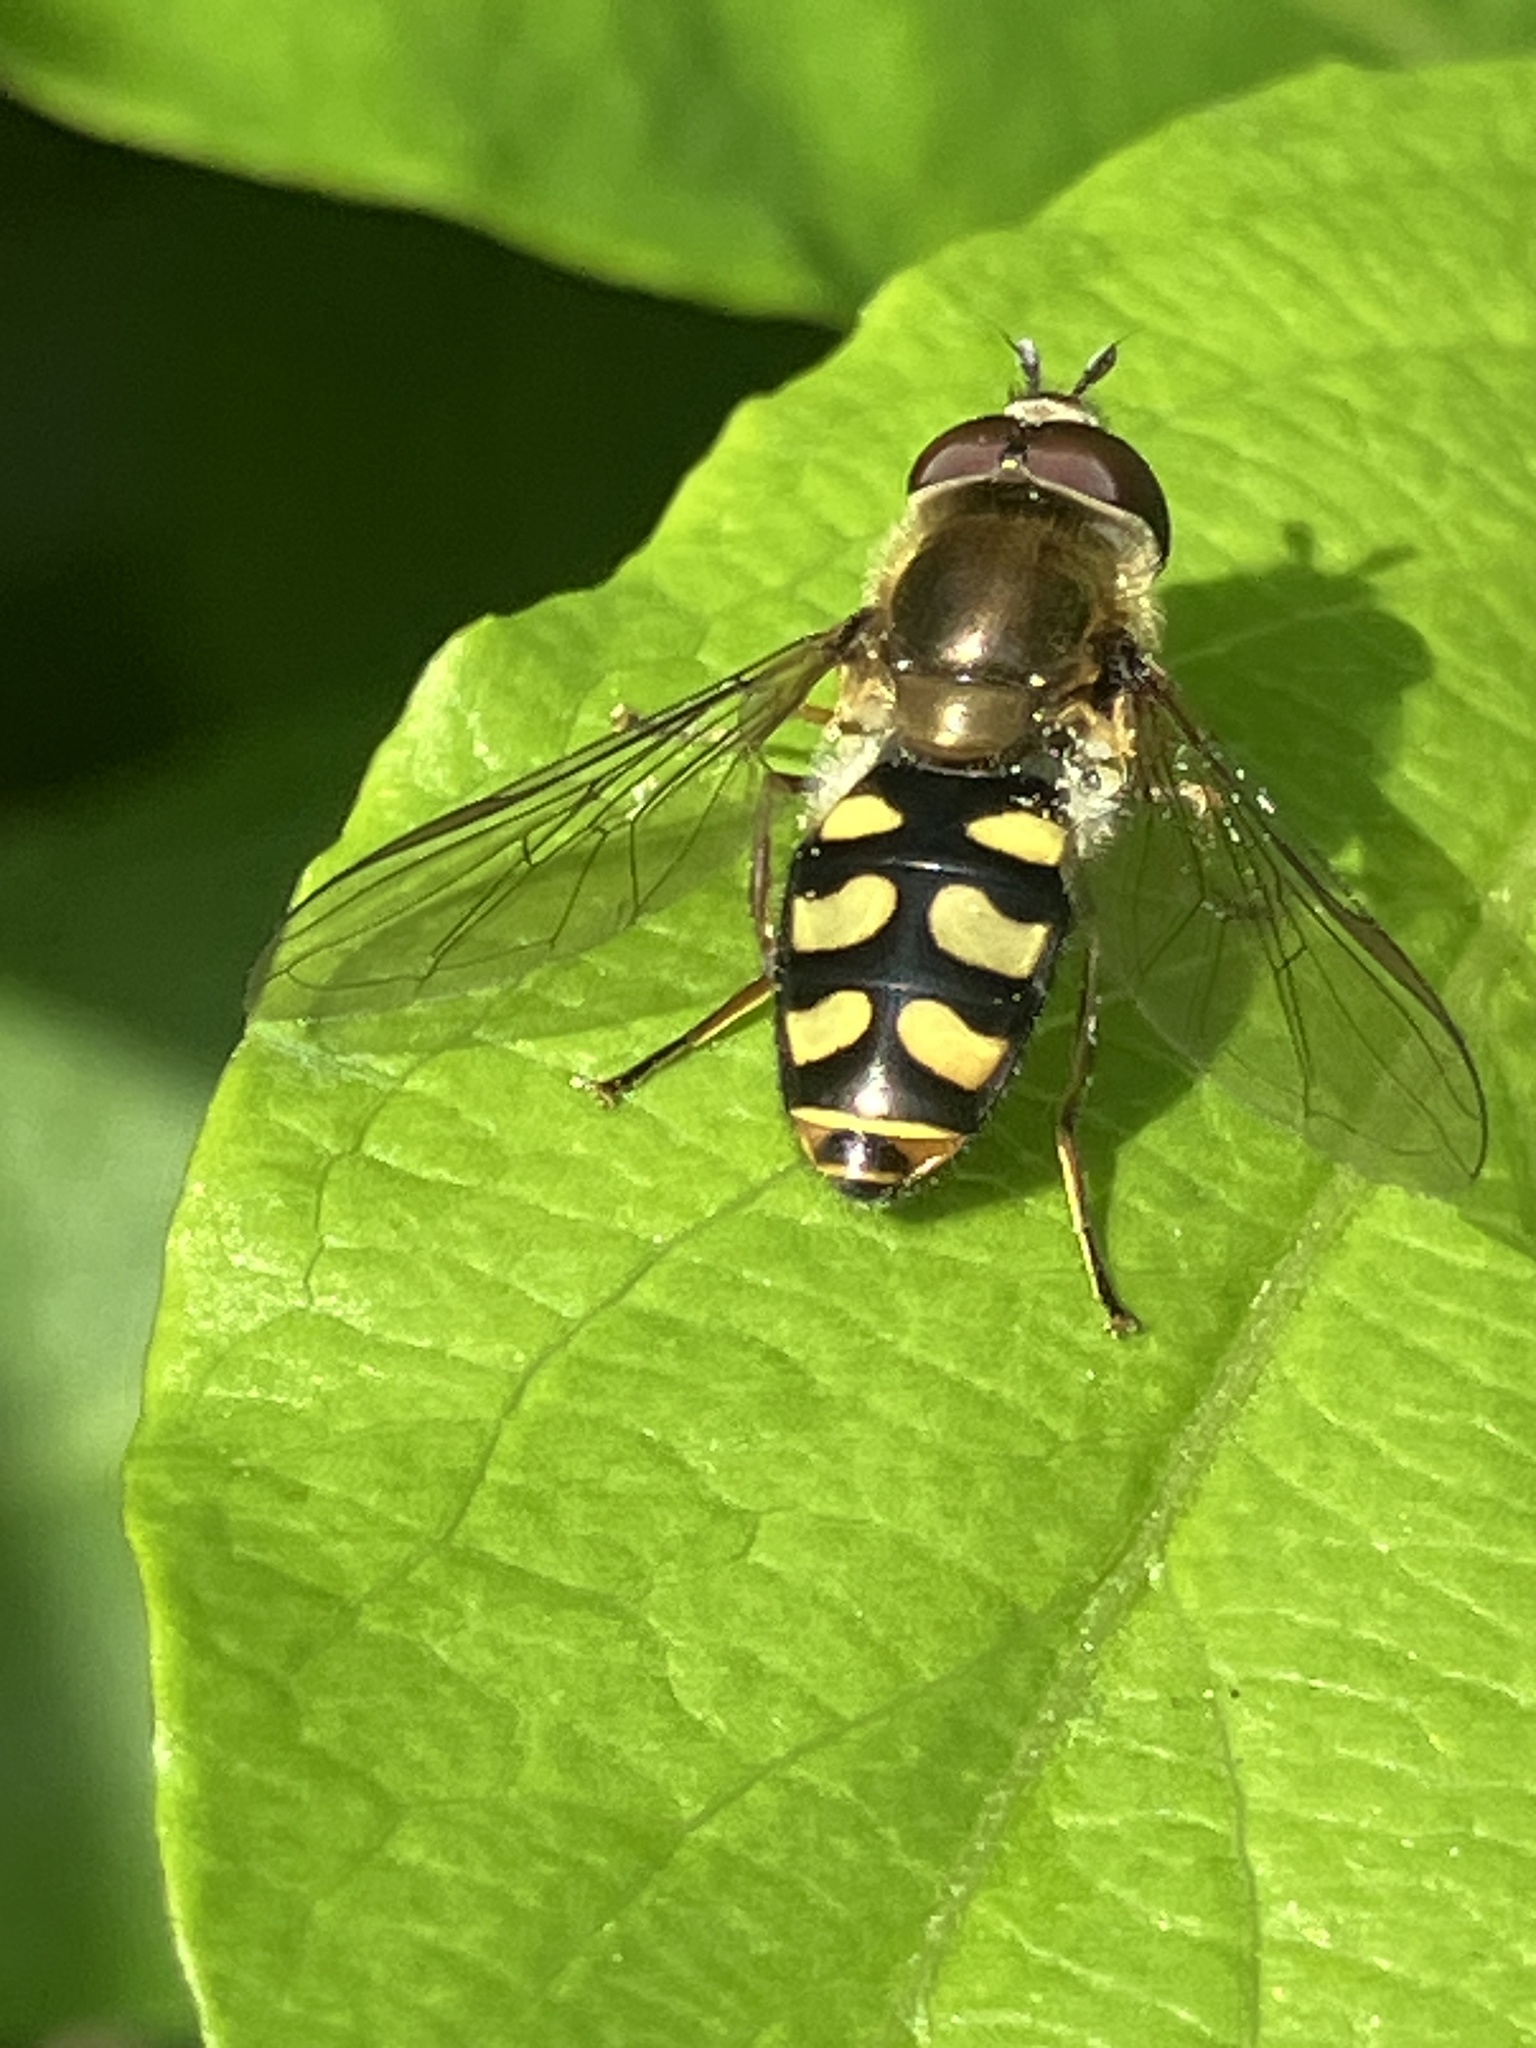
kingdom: Animalia
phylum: Arthropoda
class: Insecta
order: Diptera
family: Syrphidae
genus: Eupeodes
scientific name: Eupeodes
